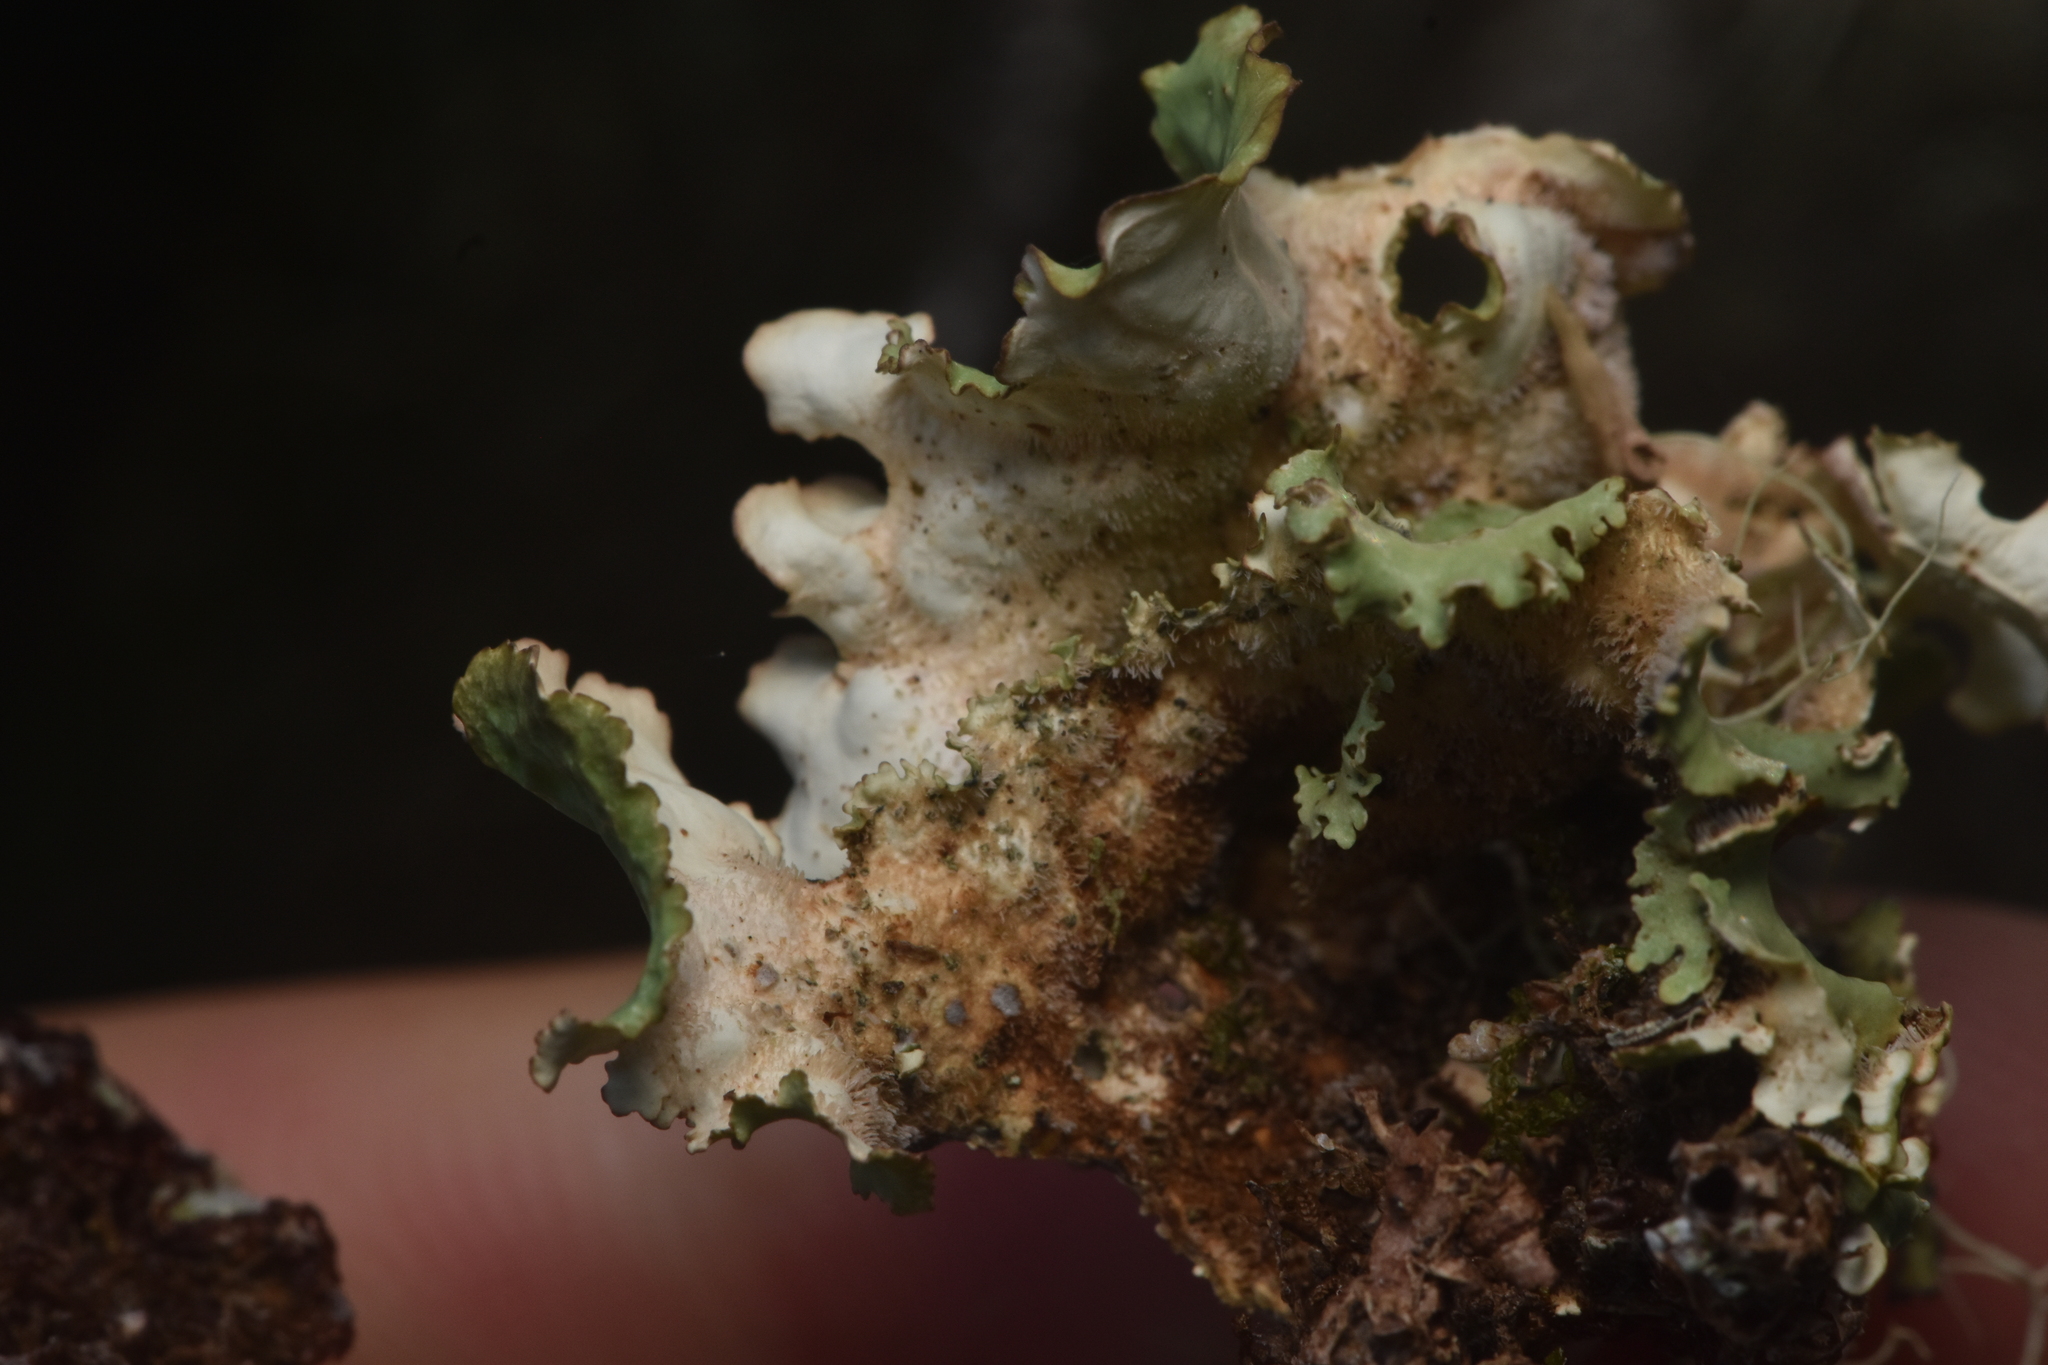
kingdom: Fungi
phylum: Ascomycota
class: Lecanoromycetes
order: Peltigerales
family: Lobariaceae
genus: Lobaria
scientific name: Lobaria oregana
